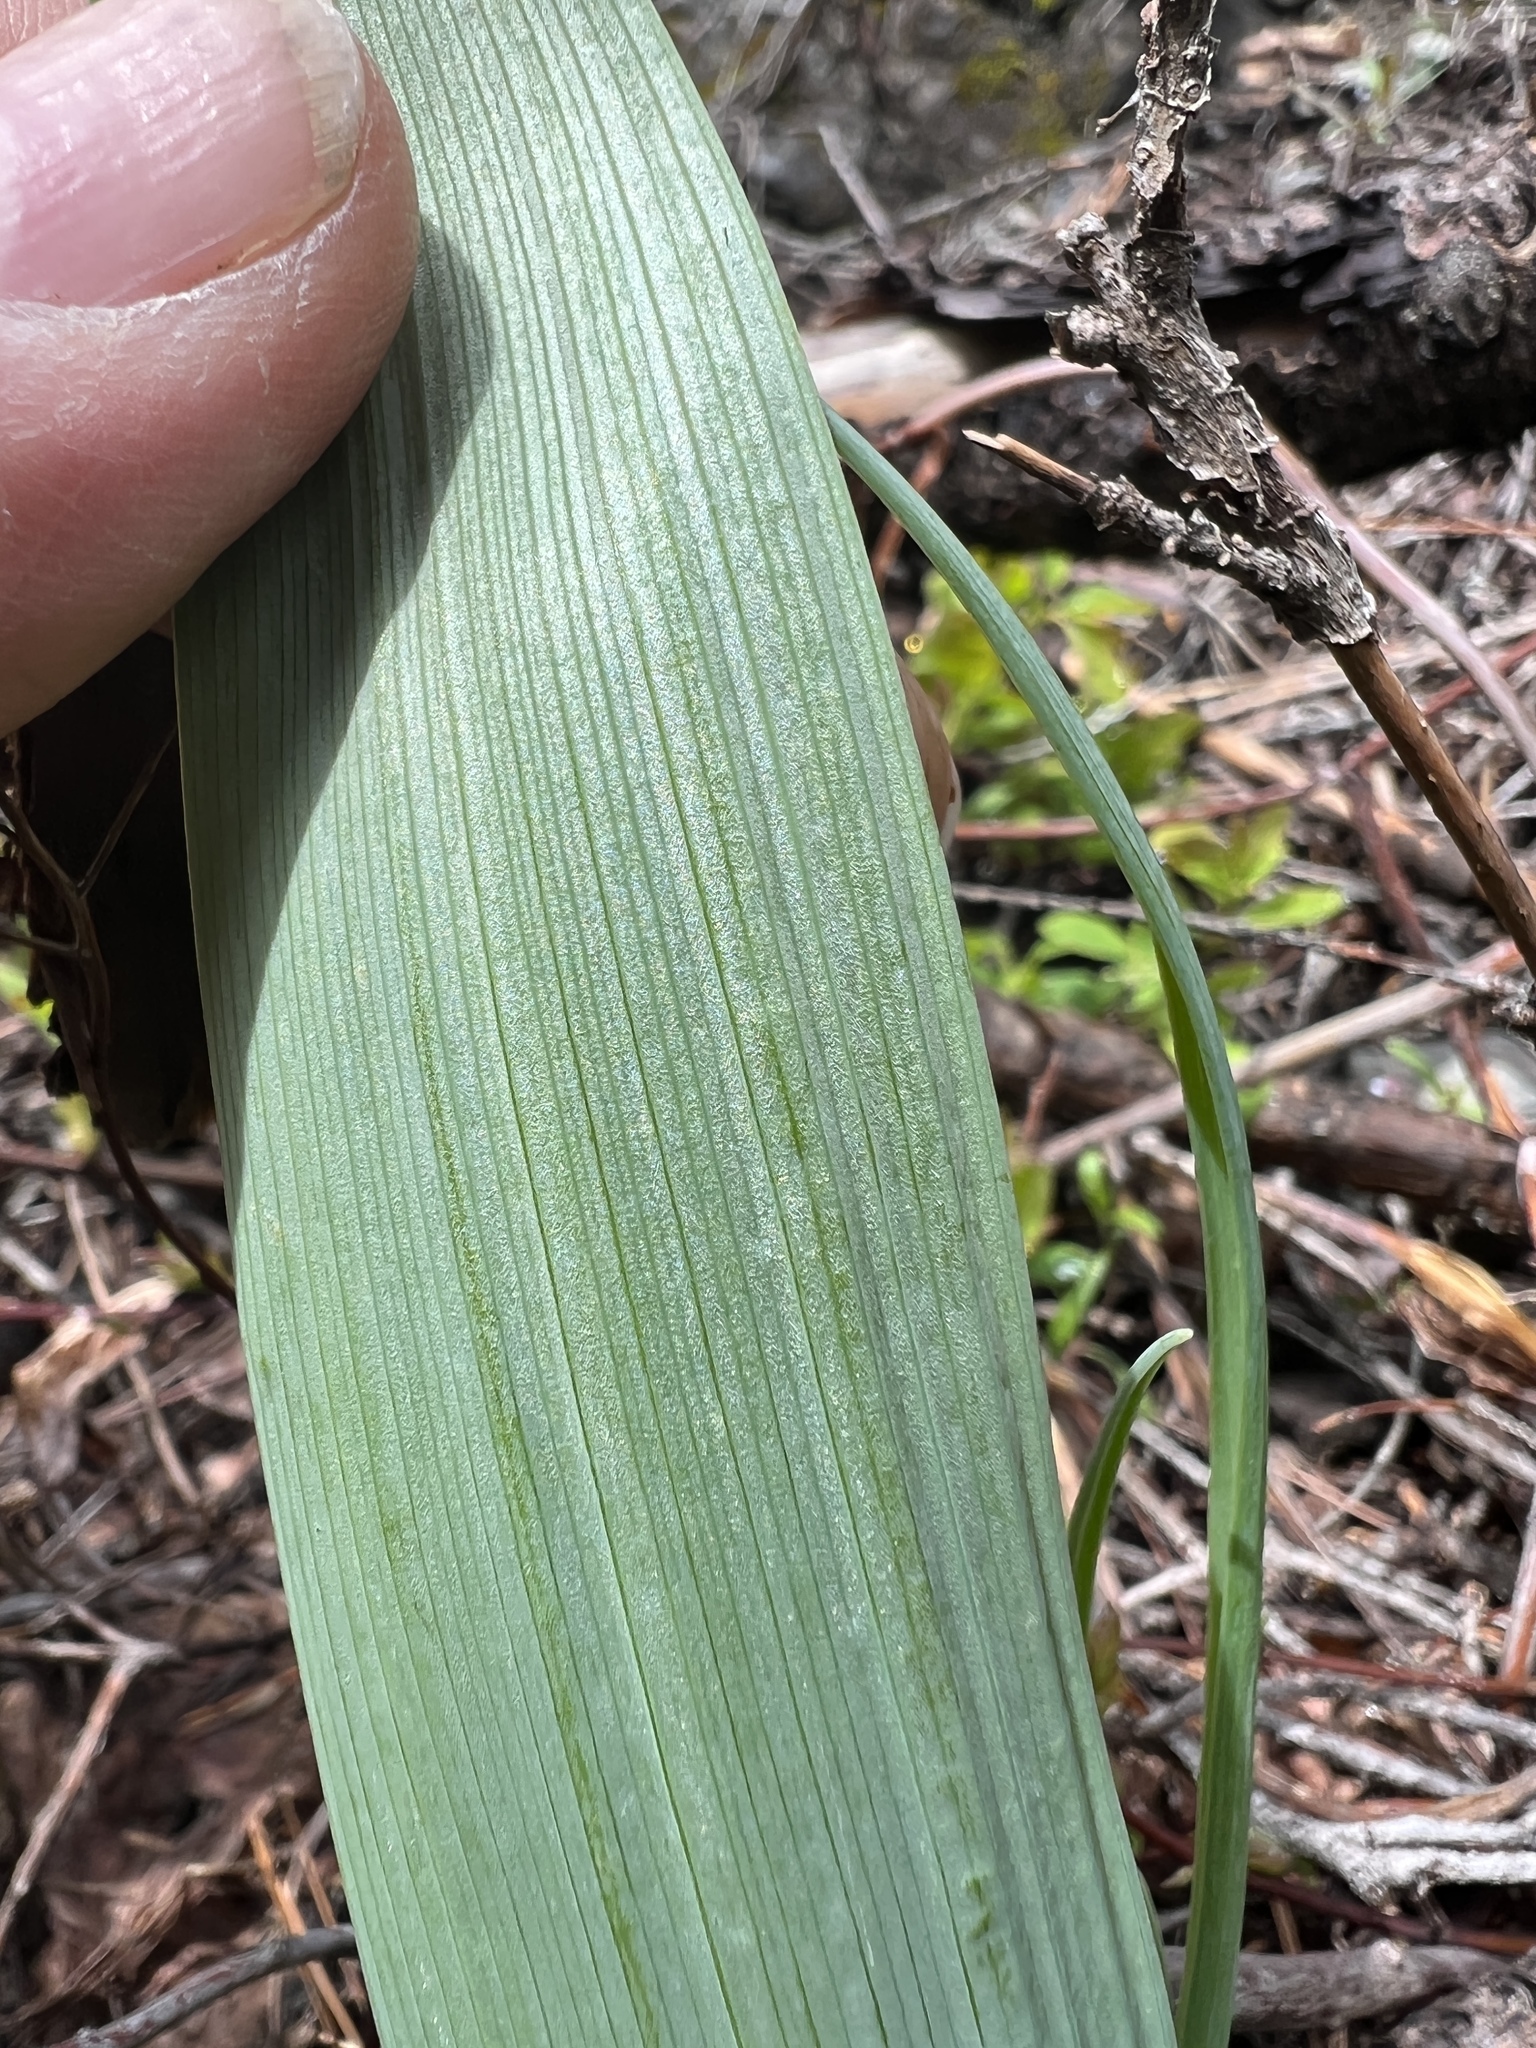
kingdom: Plantae
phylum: Tracheophyta
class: Liliopsida
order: Liliales
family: Liliaceae
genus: Calochortus
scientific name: Calochortus lyallii
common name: Lyall's mariposa lily
